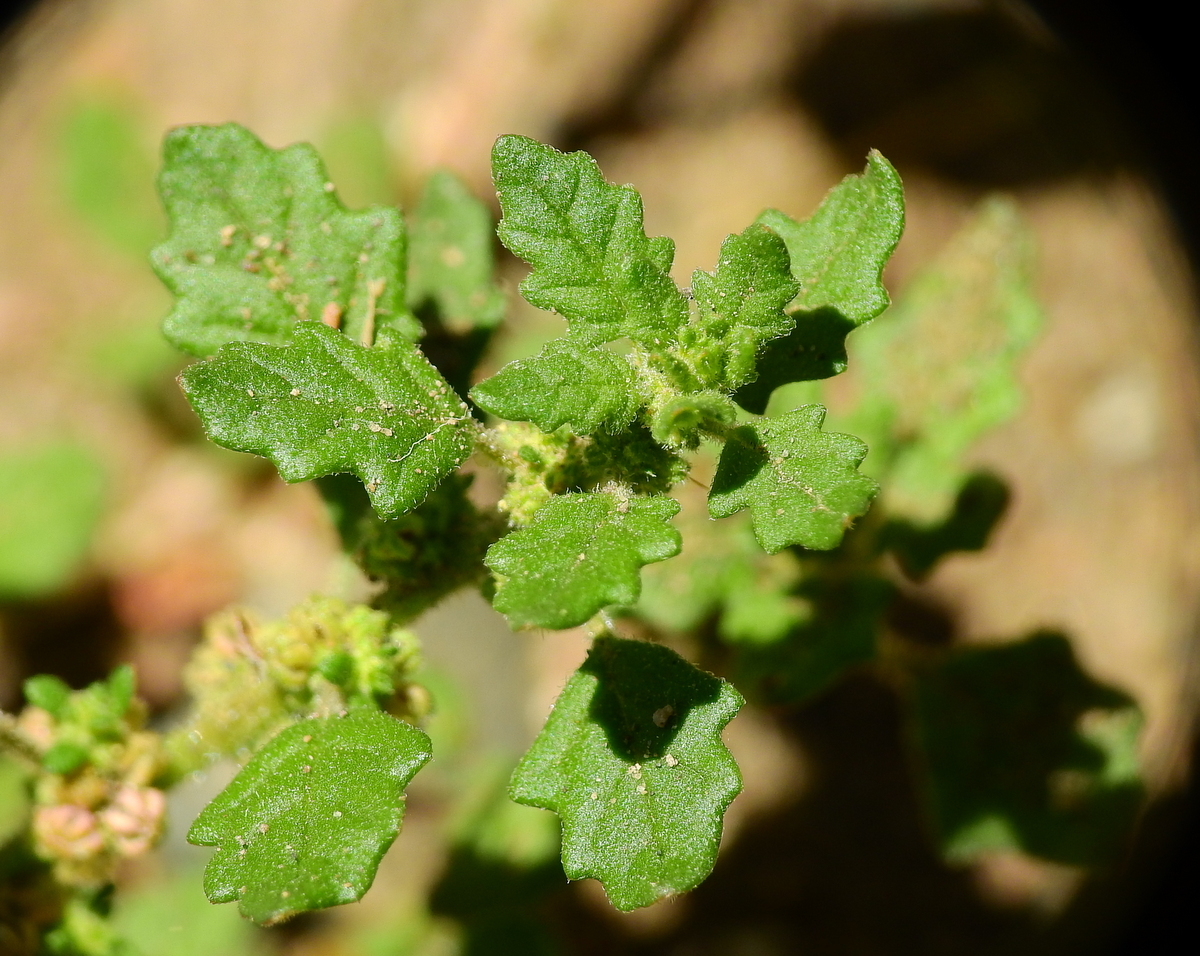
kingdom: Plantae
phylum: Tracheophyta
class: Magnoliopsida
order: Caryophyllales
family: Amaranthaceae
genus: Dysphania
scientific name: Dysphania pumilio
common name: Clammy goosefoot
